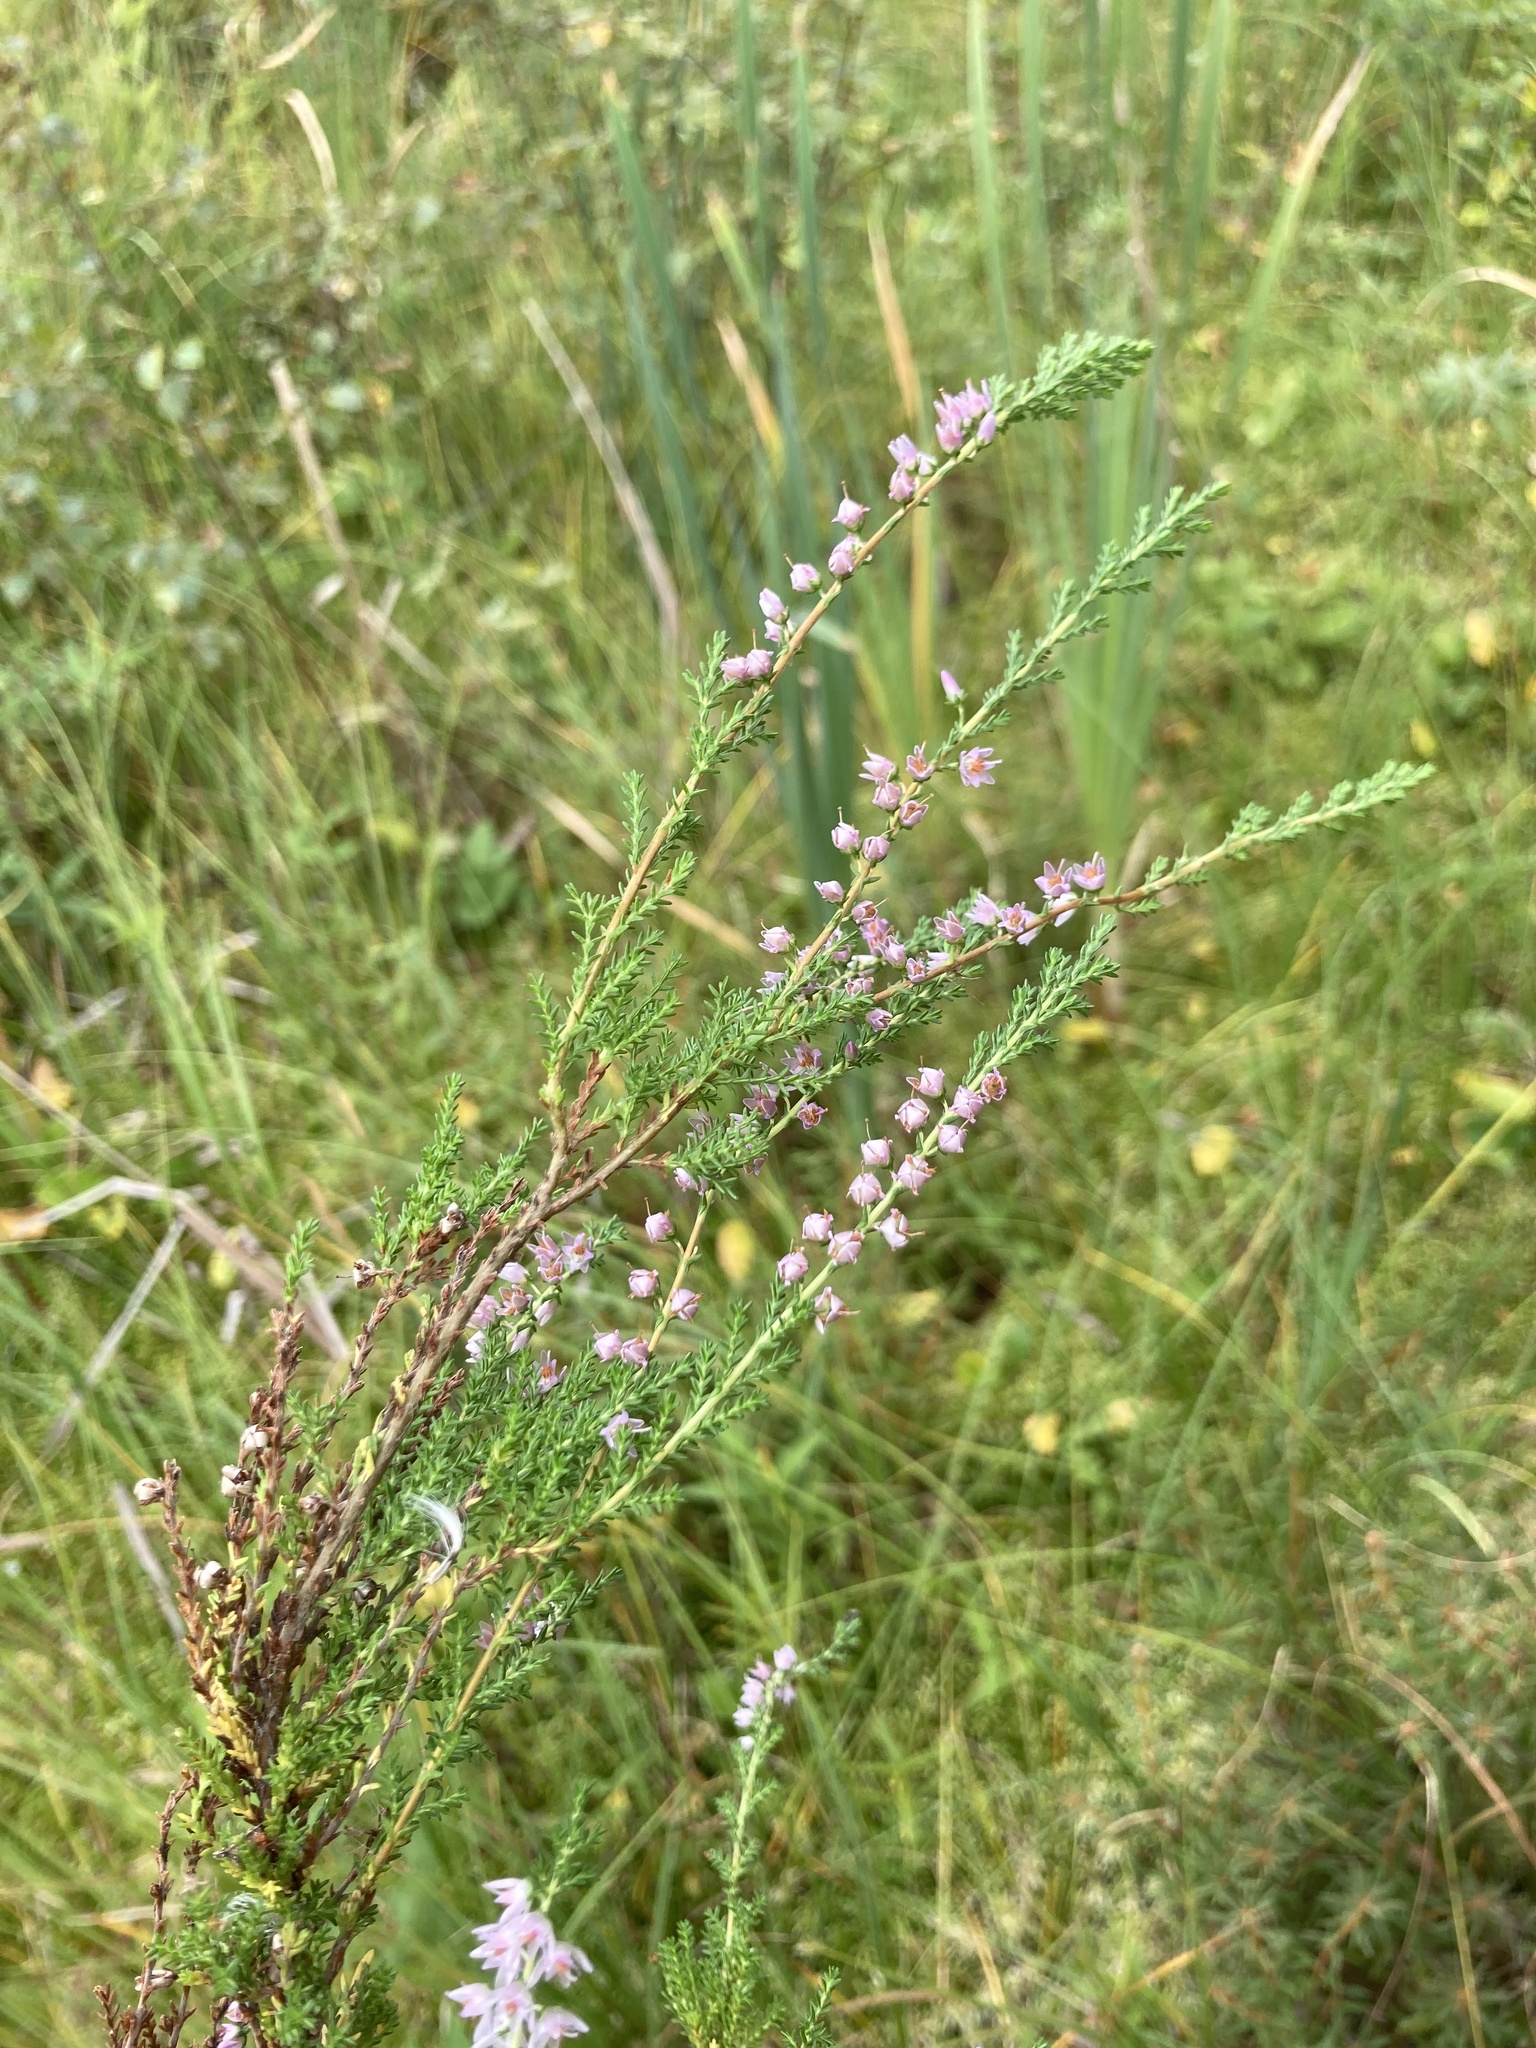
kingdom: Plantae
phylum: Tracheophyta
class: Magnoliopsida
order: Ericales
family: Ericaceae
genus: Calluna
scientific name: Calluna vulgaris
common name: Heather
